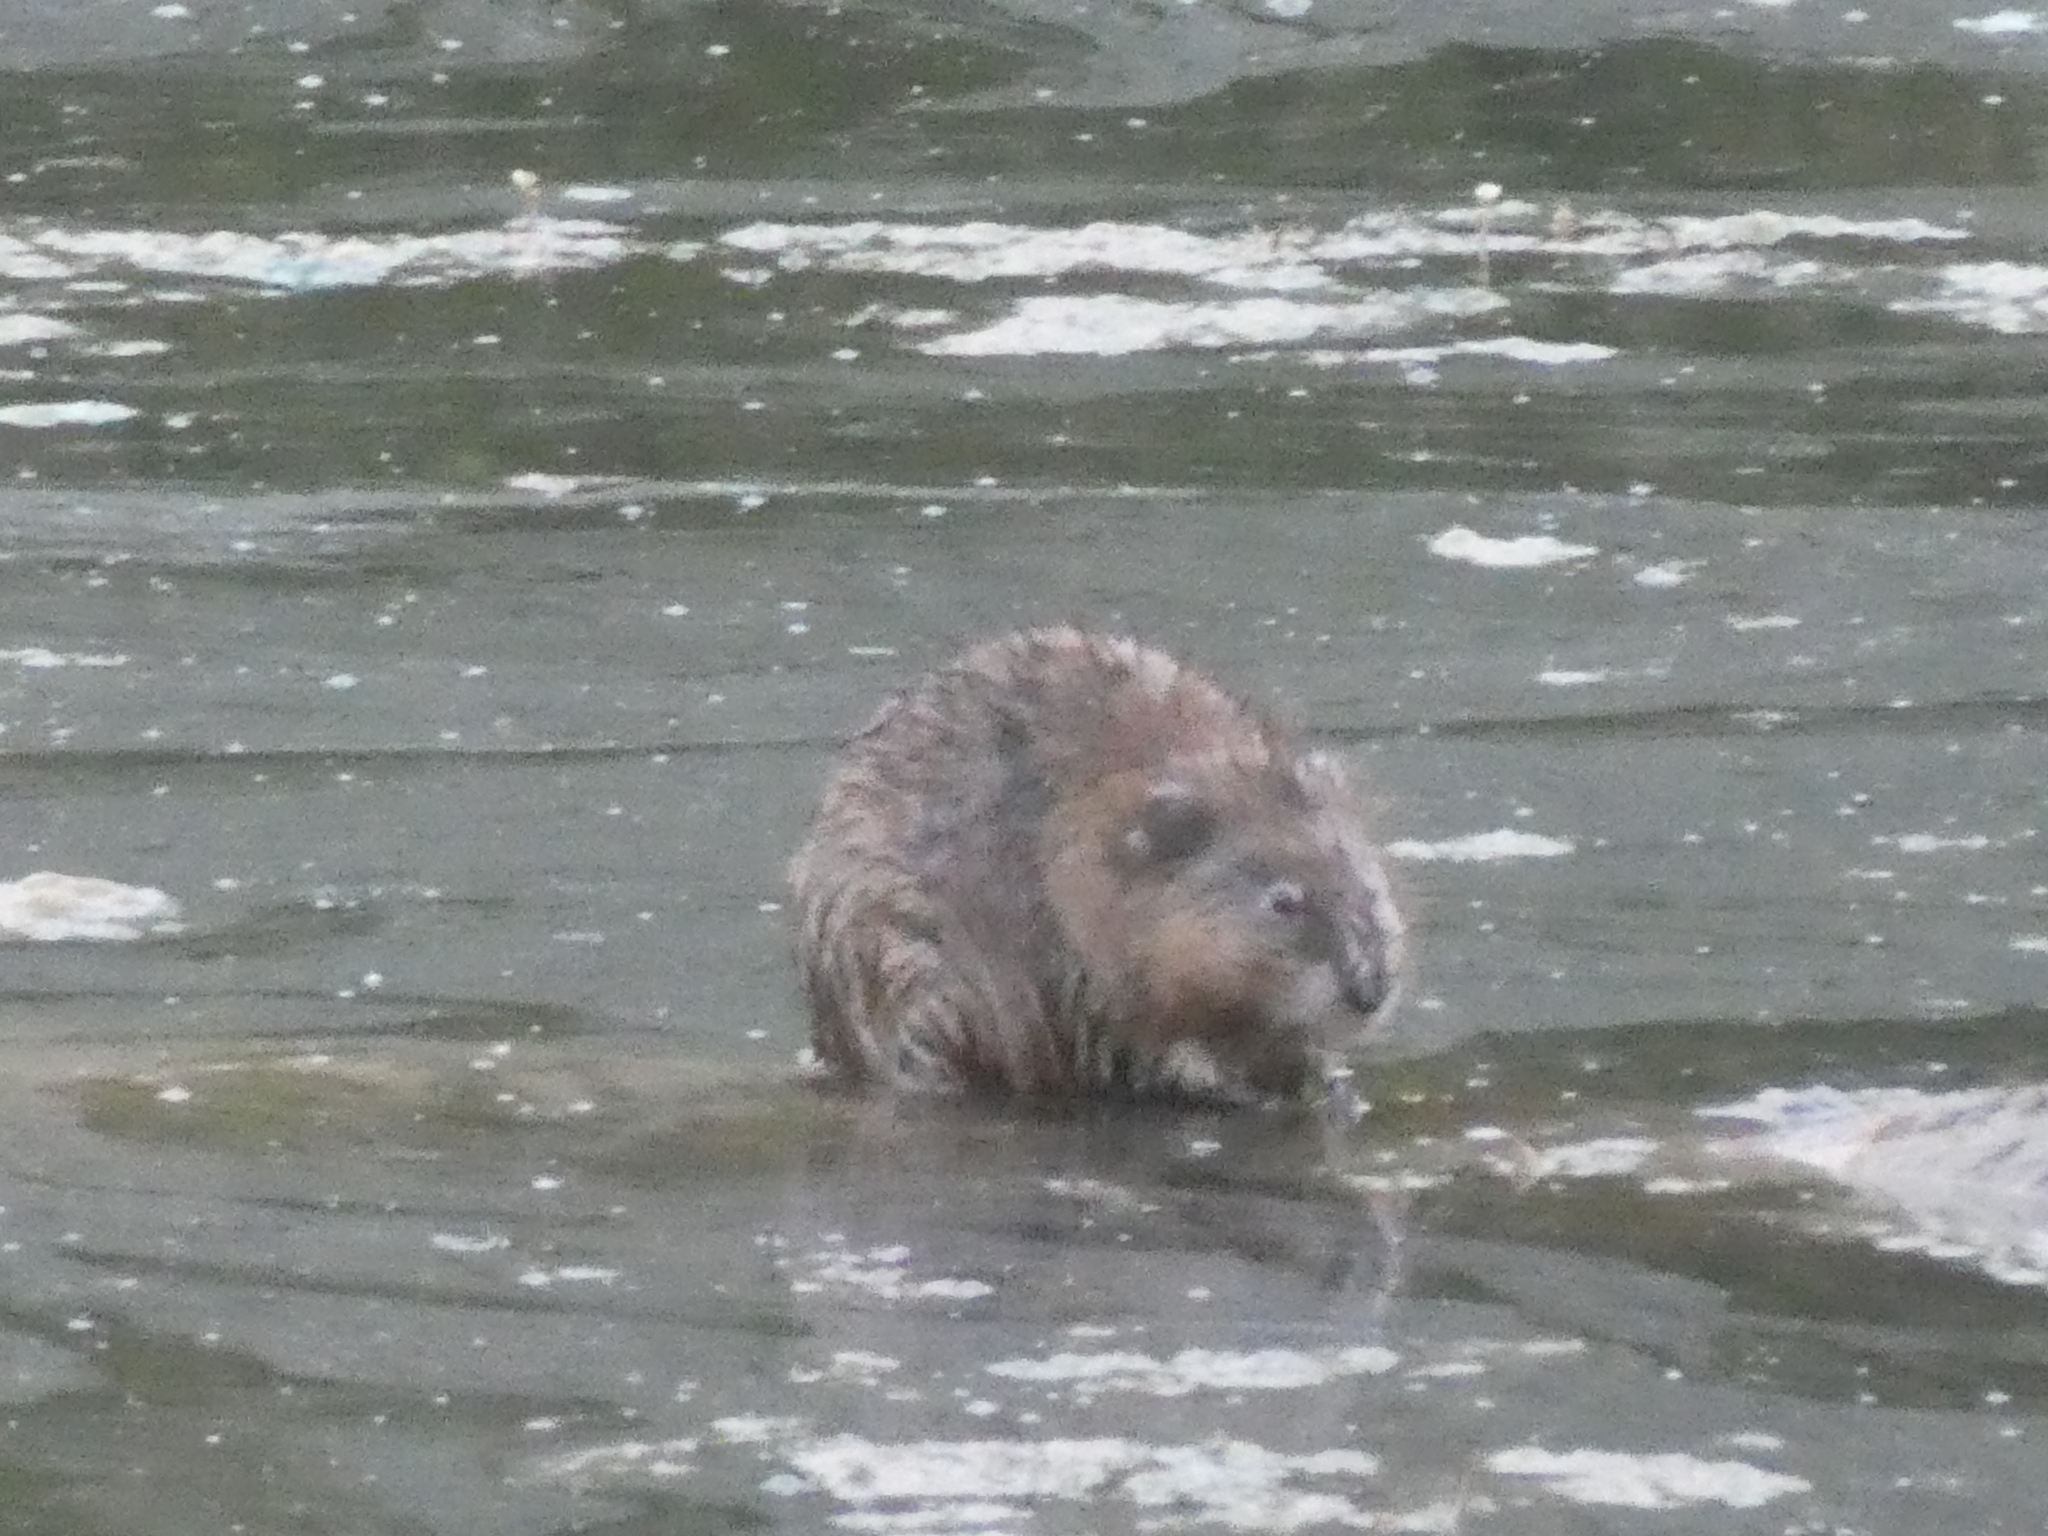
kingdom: Animalia
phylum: Chordata
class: Mammalia
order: Rodentia
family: Cricetidae
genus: Ondatra
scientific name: Ondatra zibethicus
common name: Muskrat
